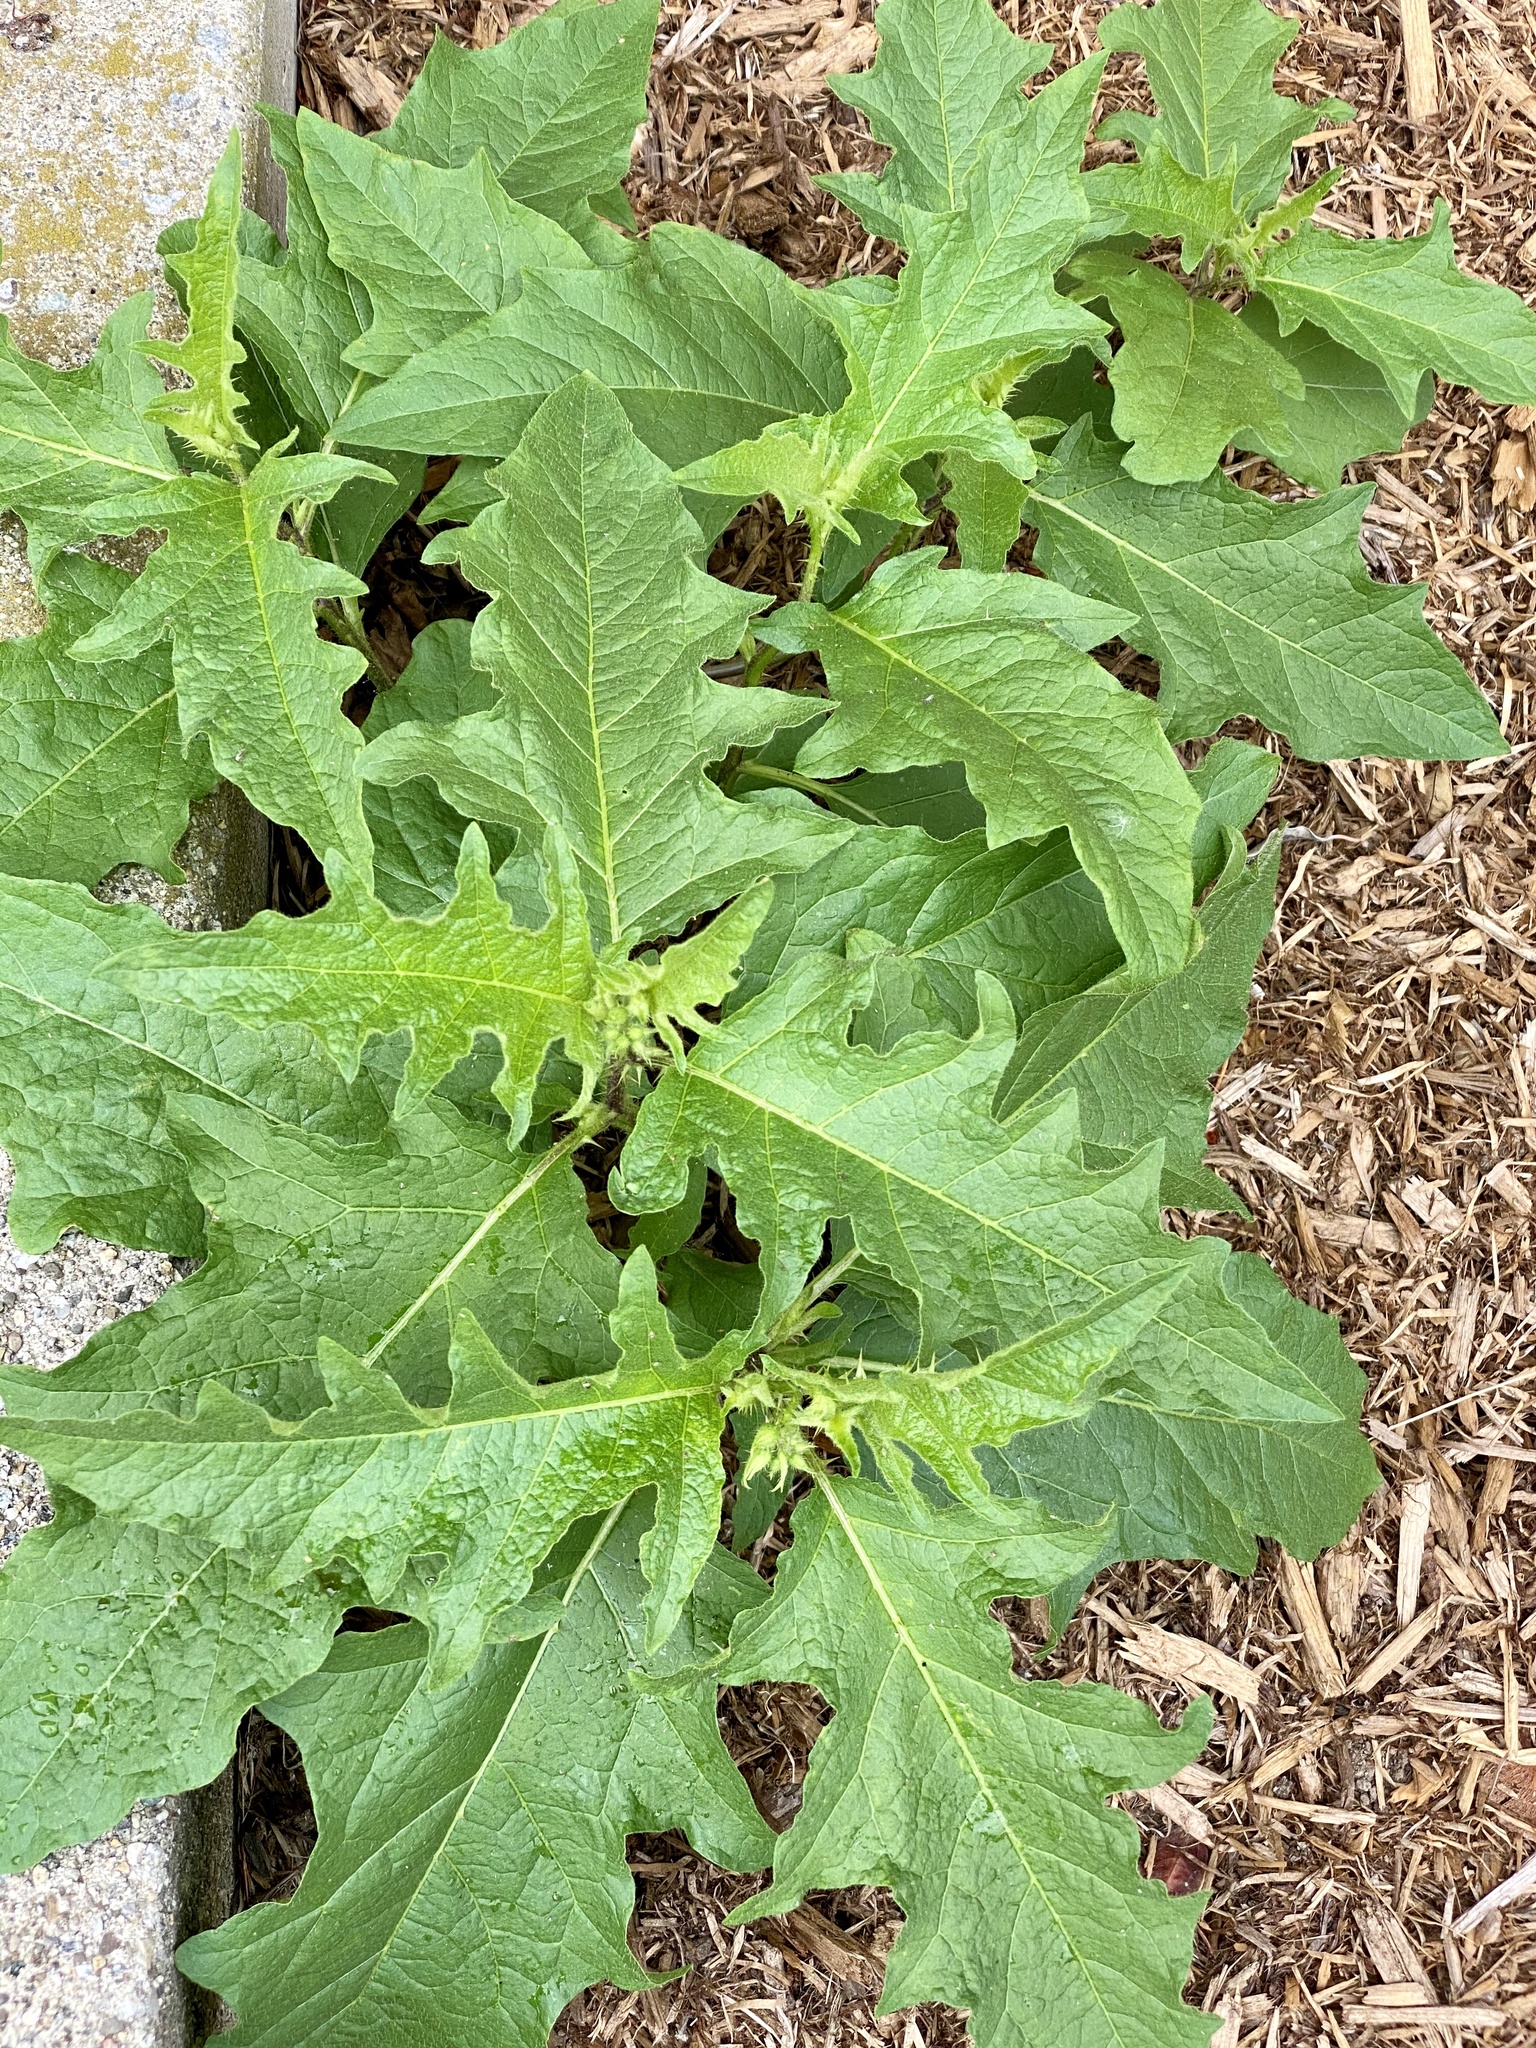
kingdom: Plantae
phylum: Tracheophyta
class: Magnoliopsida
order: Solanales
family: Solanaceae
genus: Solanum
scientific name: Solanum carolinense
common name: Horse-nettle
